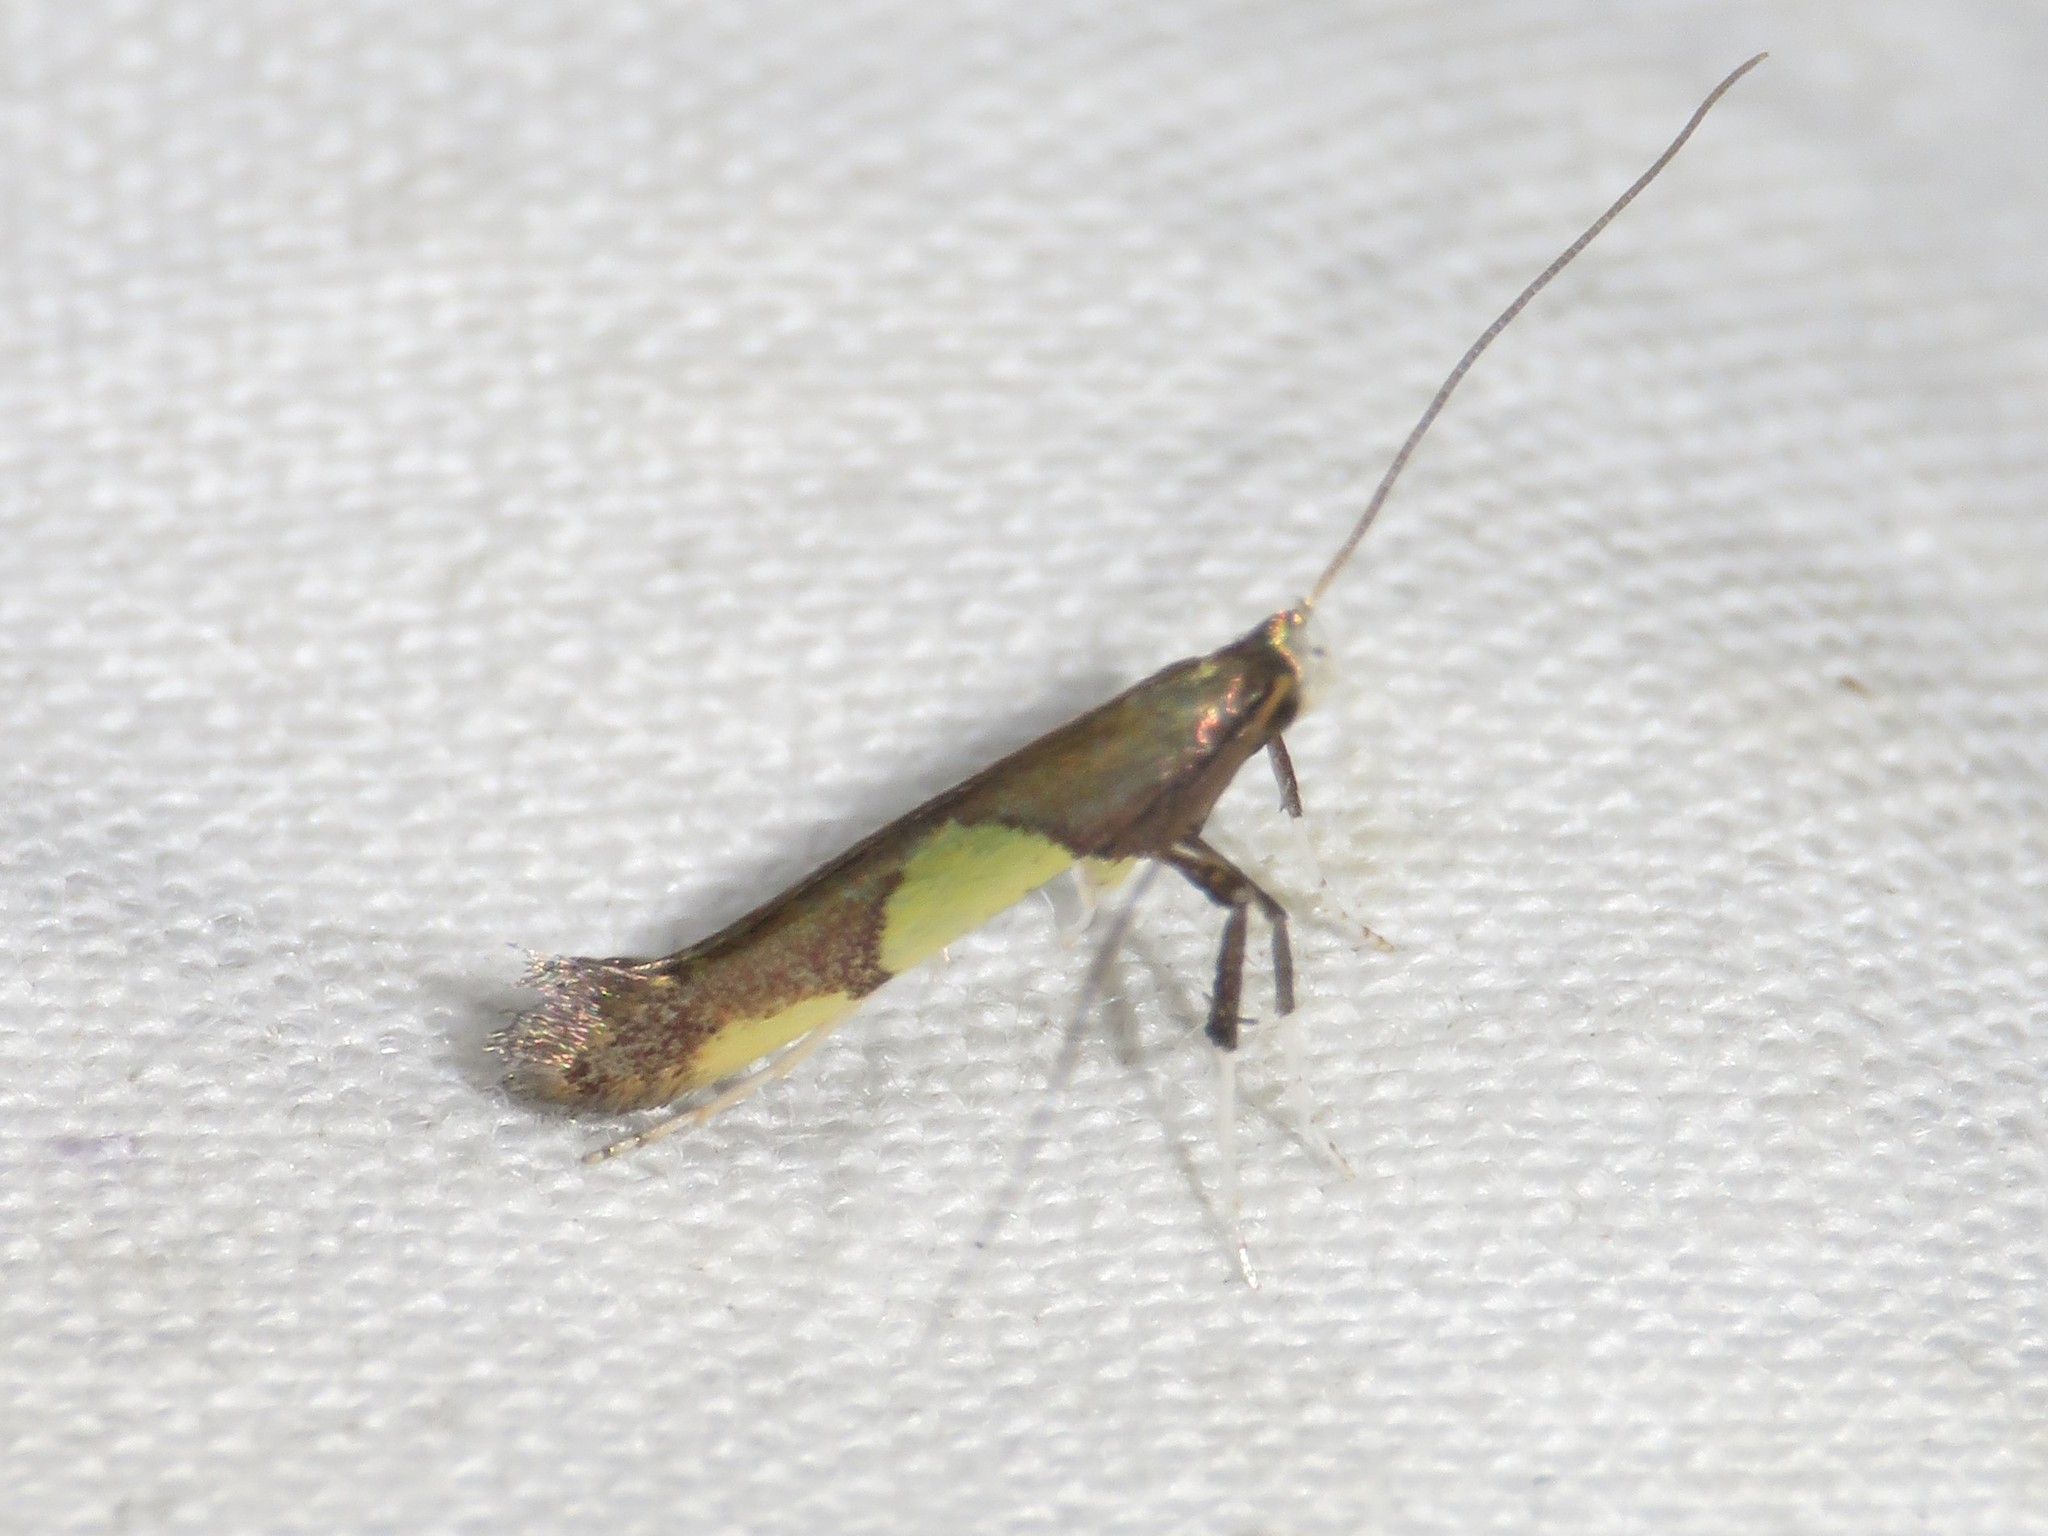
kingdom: Animalia
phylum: Arthropoda
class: Insecta
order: Lepidoptera
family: Gracillariidae
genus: Caloptilia
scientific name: Caloptilia bimaculatella
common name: Maple caloptilia moth
